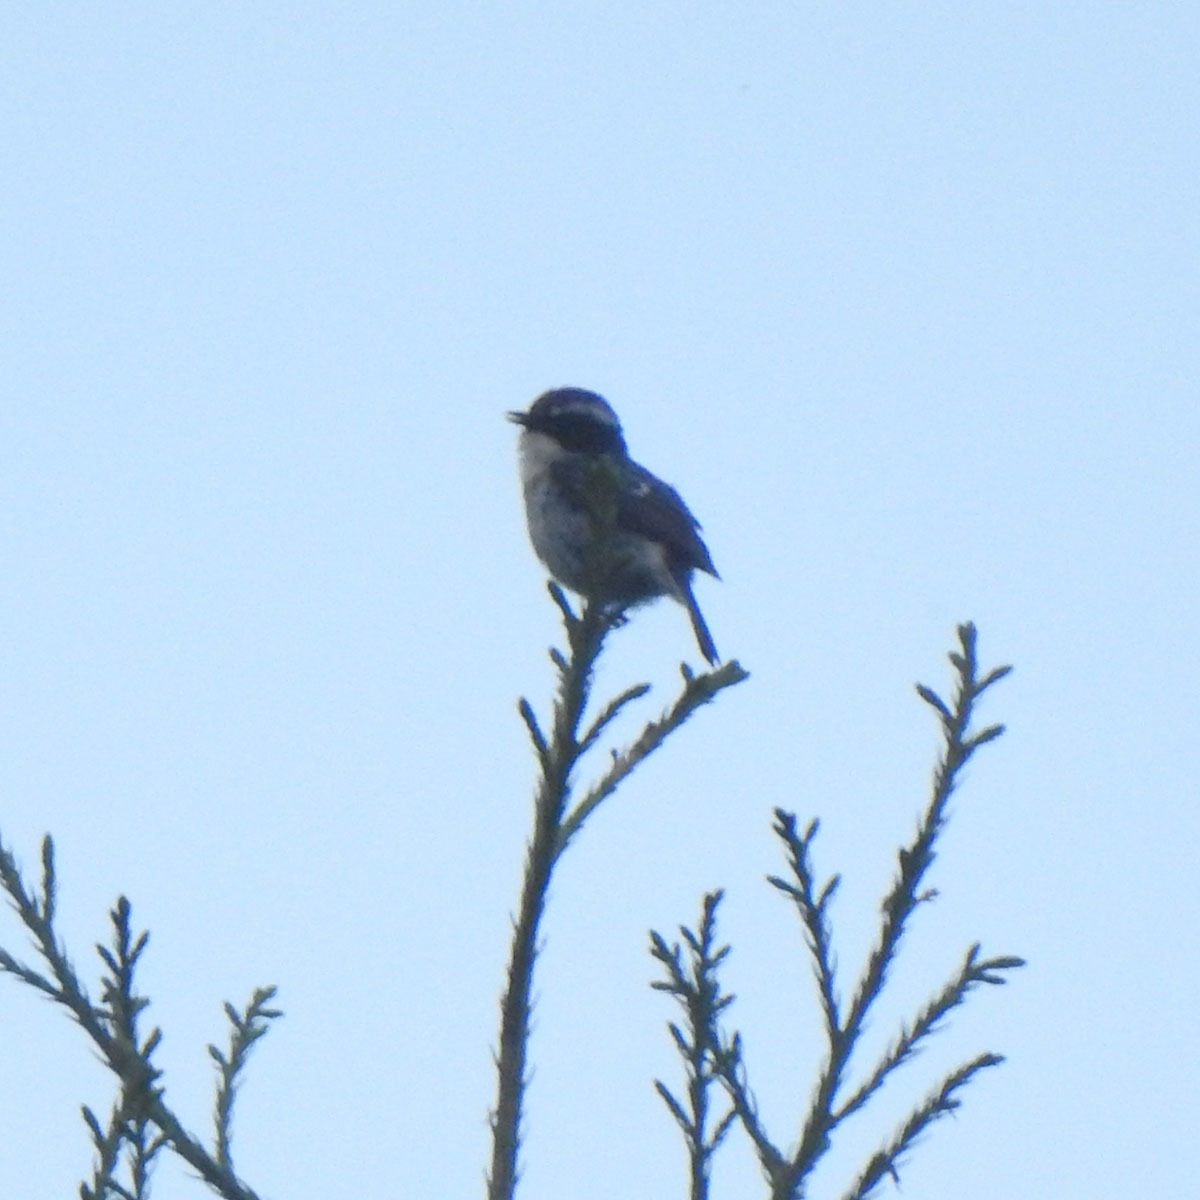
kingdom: Animalia
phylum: Chordata
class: Aves
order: Passeriformes
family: Muscicapidae
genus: Saxicola
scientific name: Saxicola ferreus
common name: Grey bush chat
